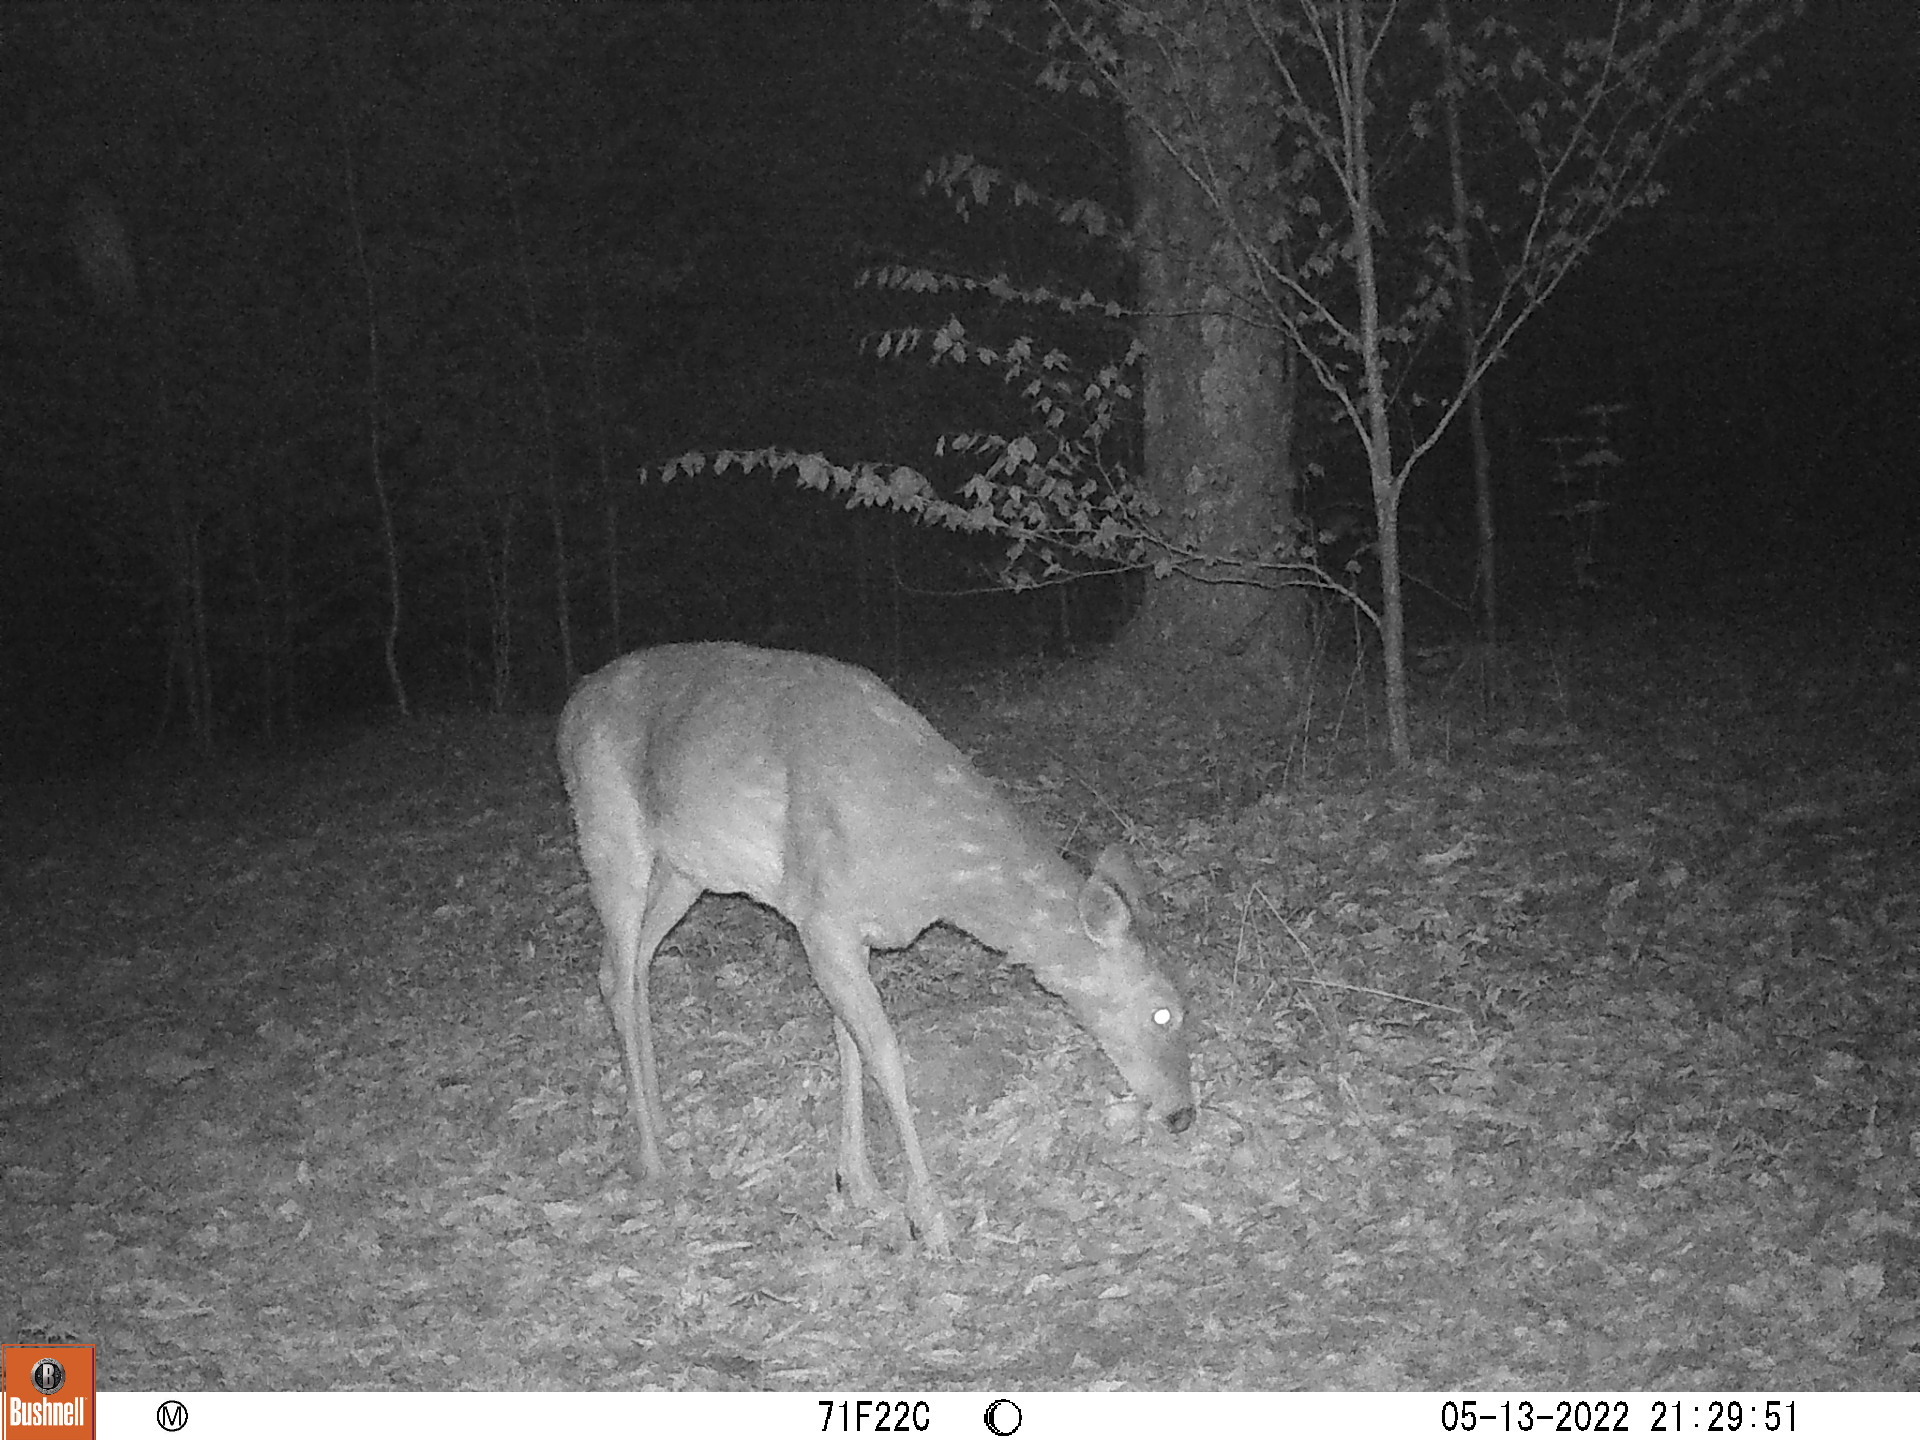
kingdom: Animalia
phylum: Chordata
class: Mammalia
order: Artiodactyla
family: Cervidae
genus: Odocoileus
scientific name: Odocoileus virginianus
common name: White-tailed deer
